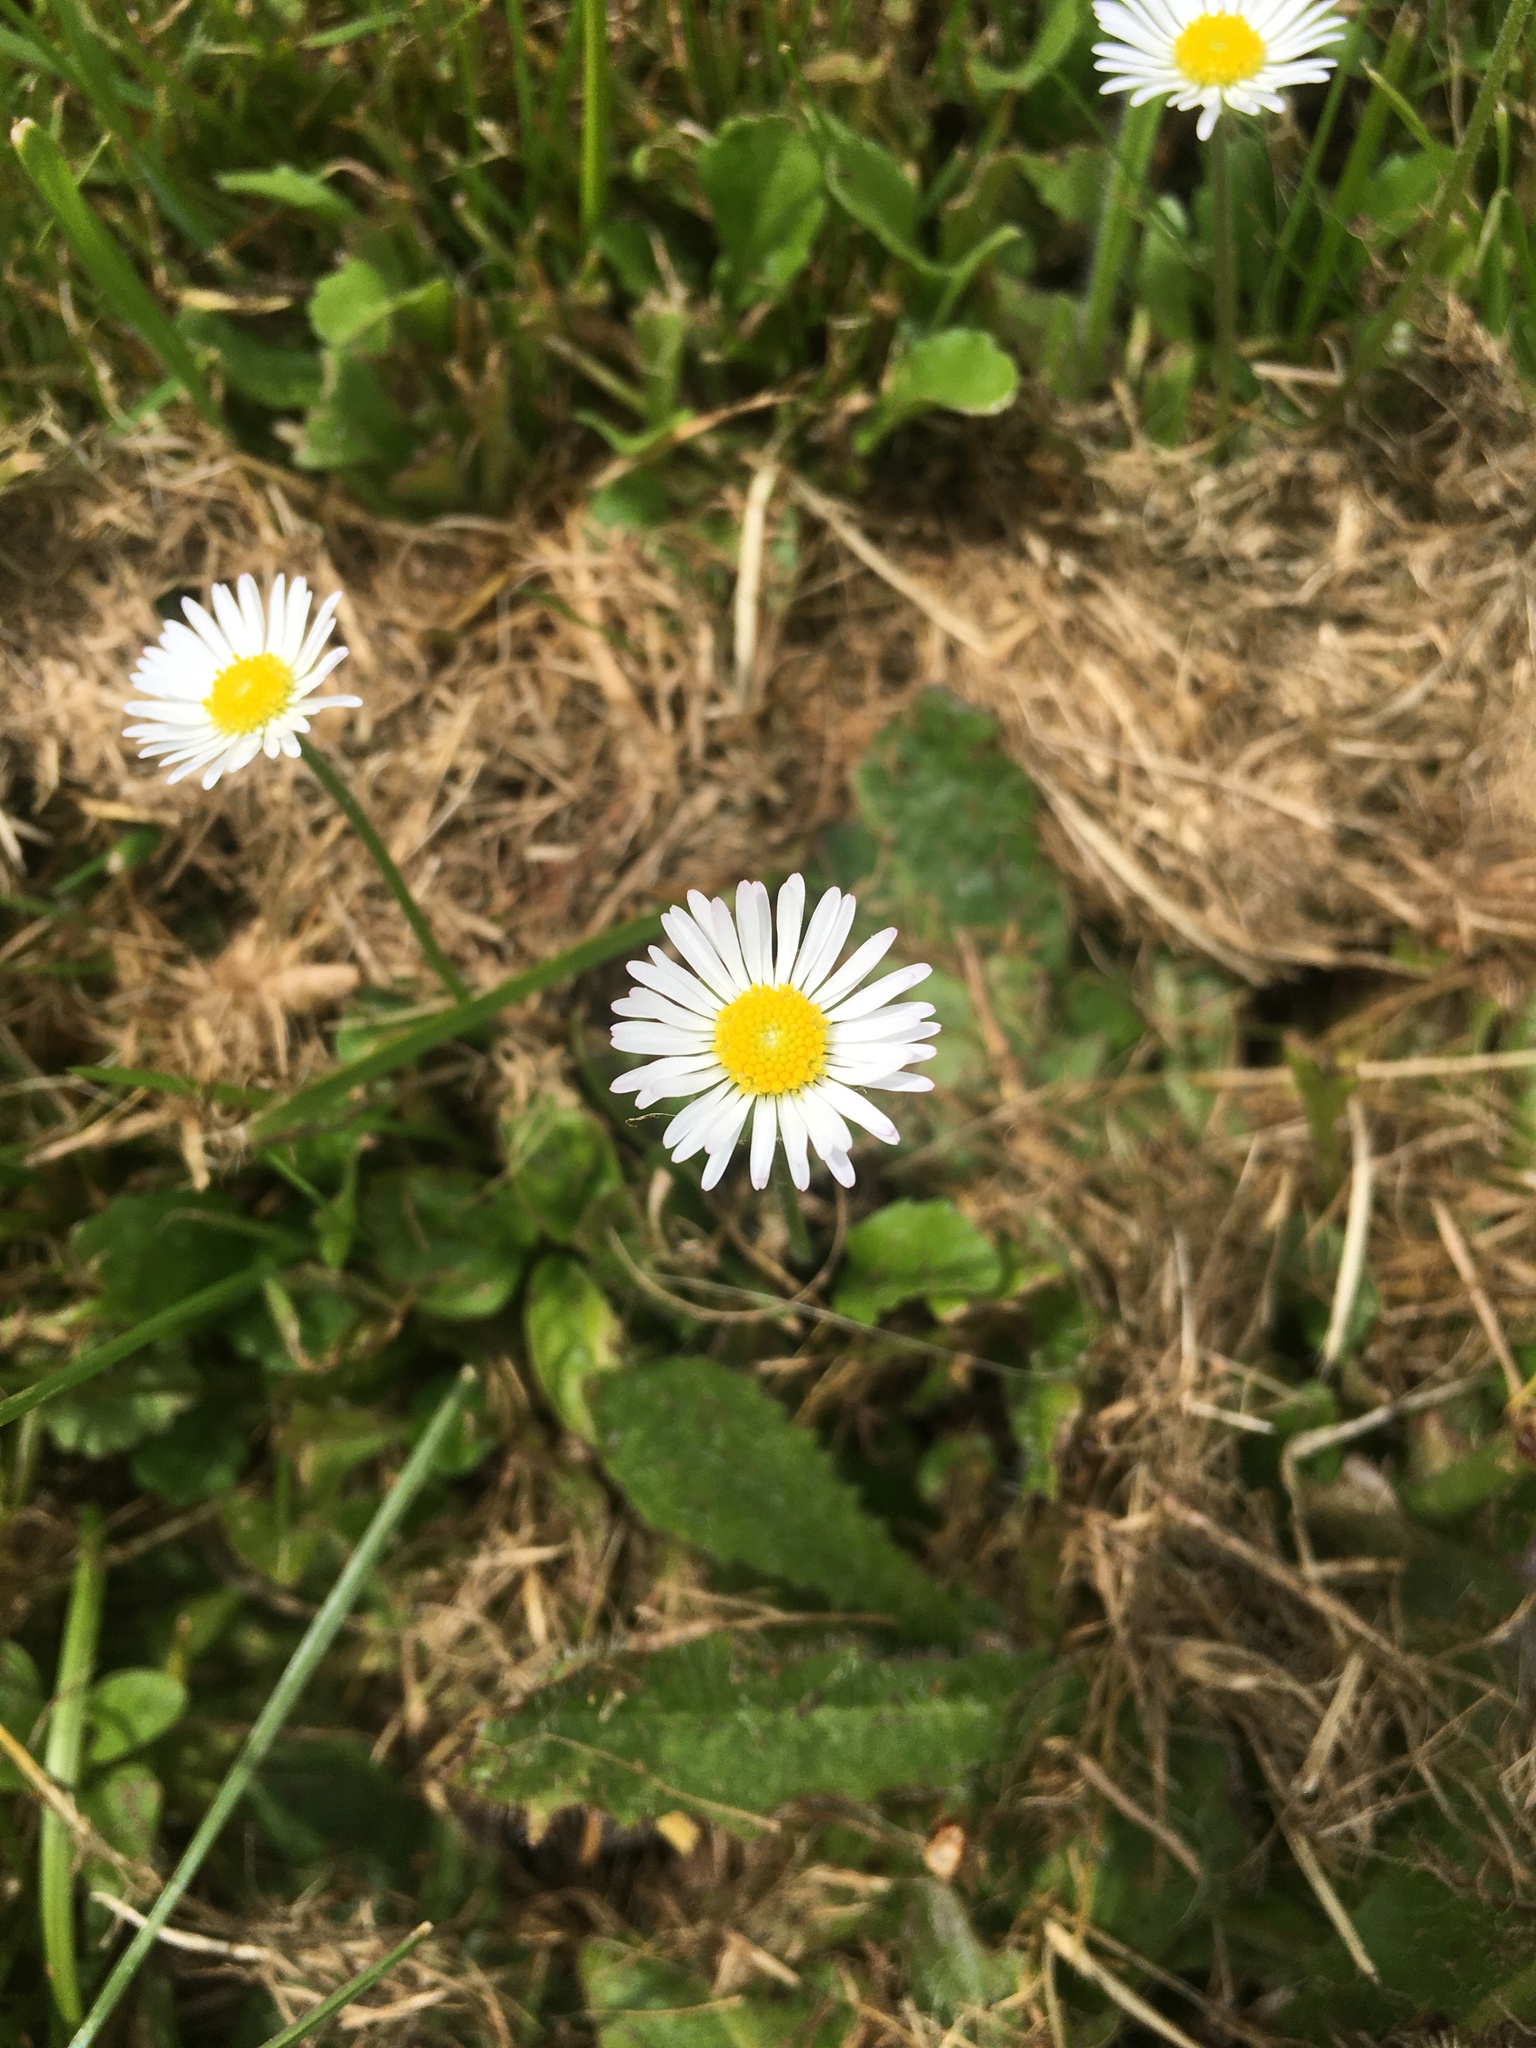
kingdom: Plantae
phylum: Tracheophyta
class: Magnoliopsida
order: Asterales
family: Asteraceae
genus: Bellis
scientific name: Bellis perennis
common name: Lawndaisy
